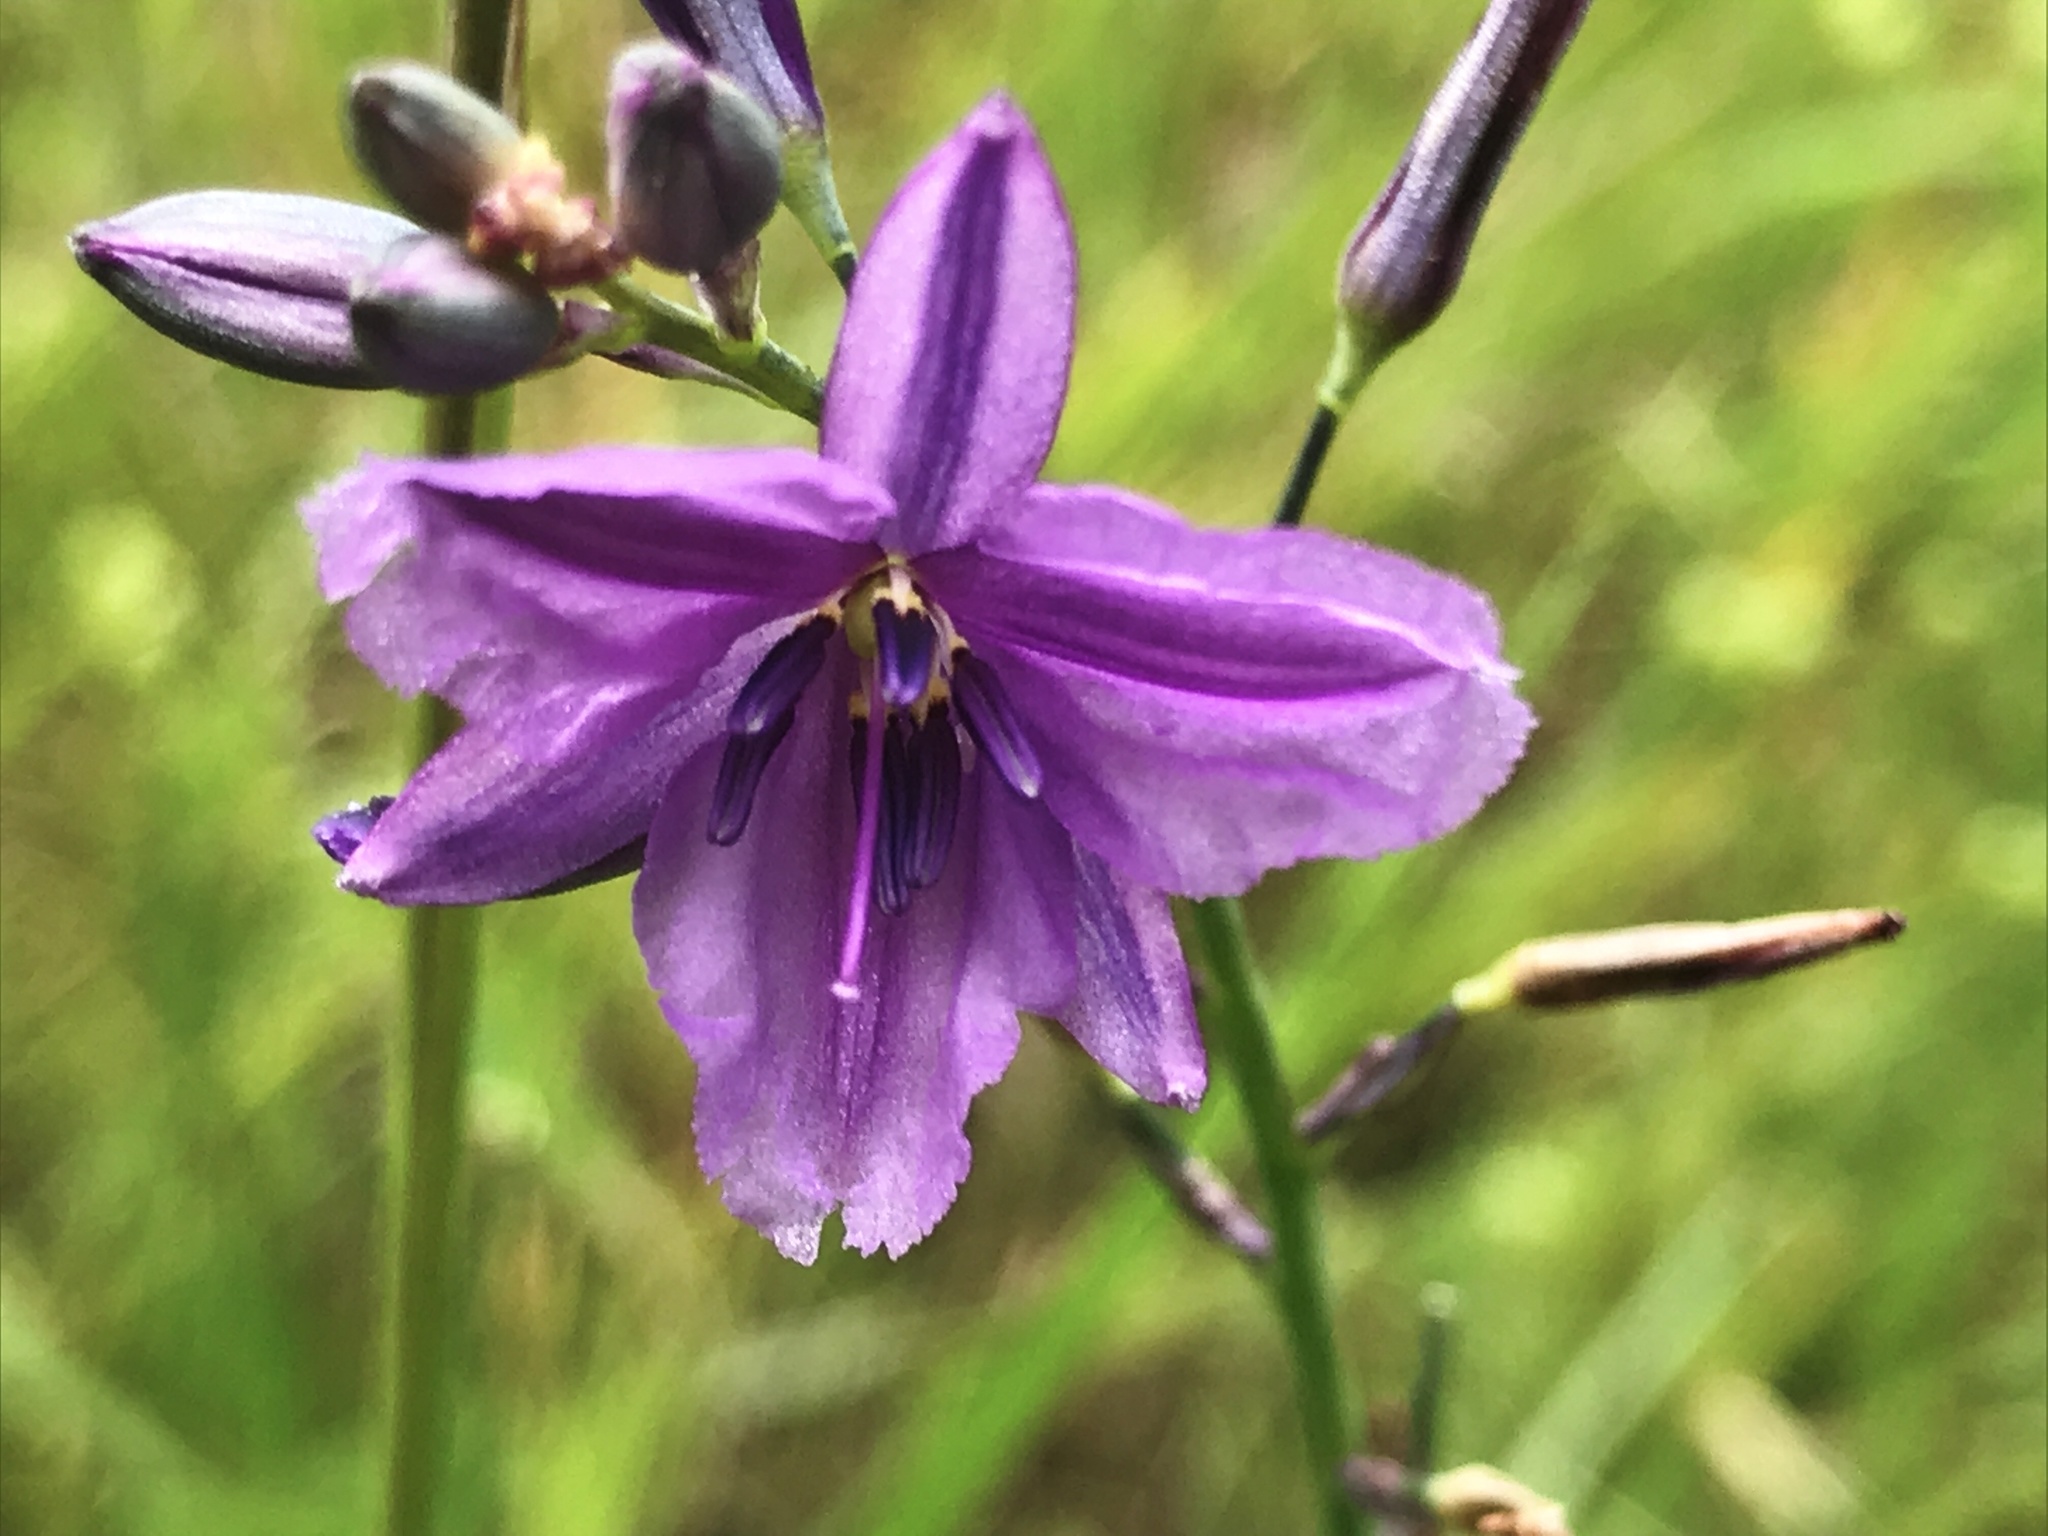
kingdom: Plantae
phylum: Tracheophyta
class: Liliopsida
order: Asparagales
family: Asparagaceae
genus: Arthropodium
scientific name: Arthropodium strictum
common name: Chocolate-lily
